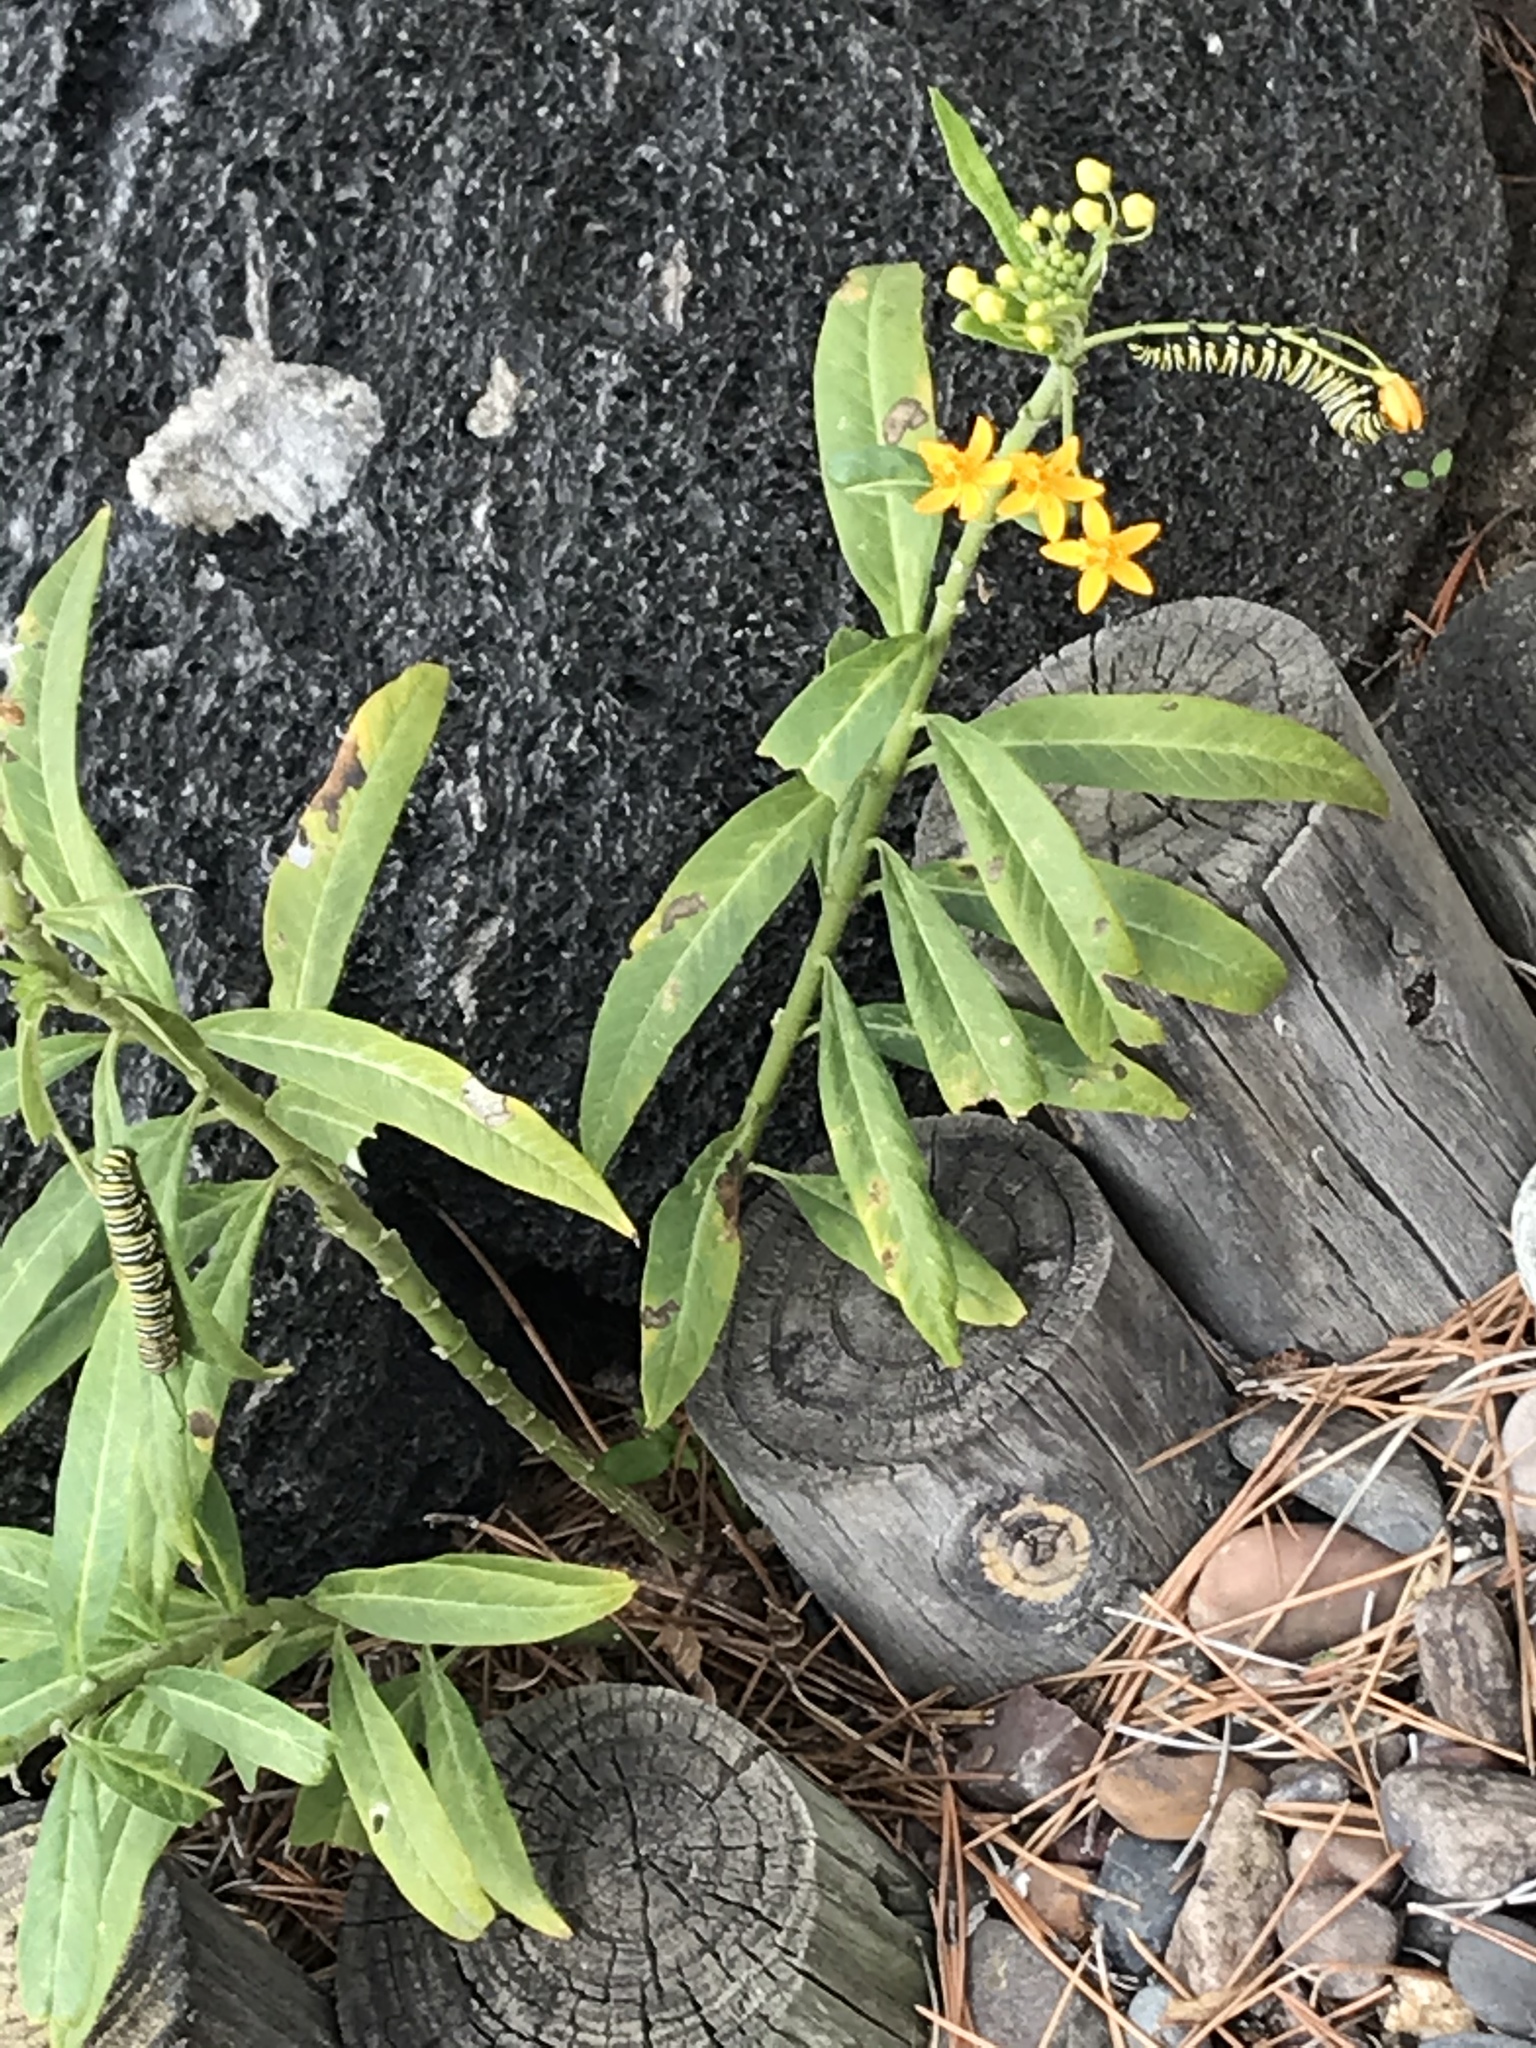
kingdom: Animalia
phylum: Arthropoda
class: Insecta
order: Lepidoptera
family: Nymphalidae
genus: Danaus
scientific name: Danaus plexippus
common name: Monarch
